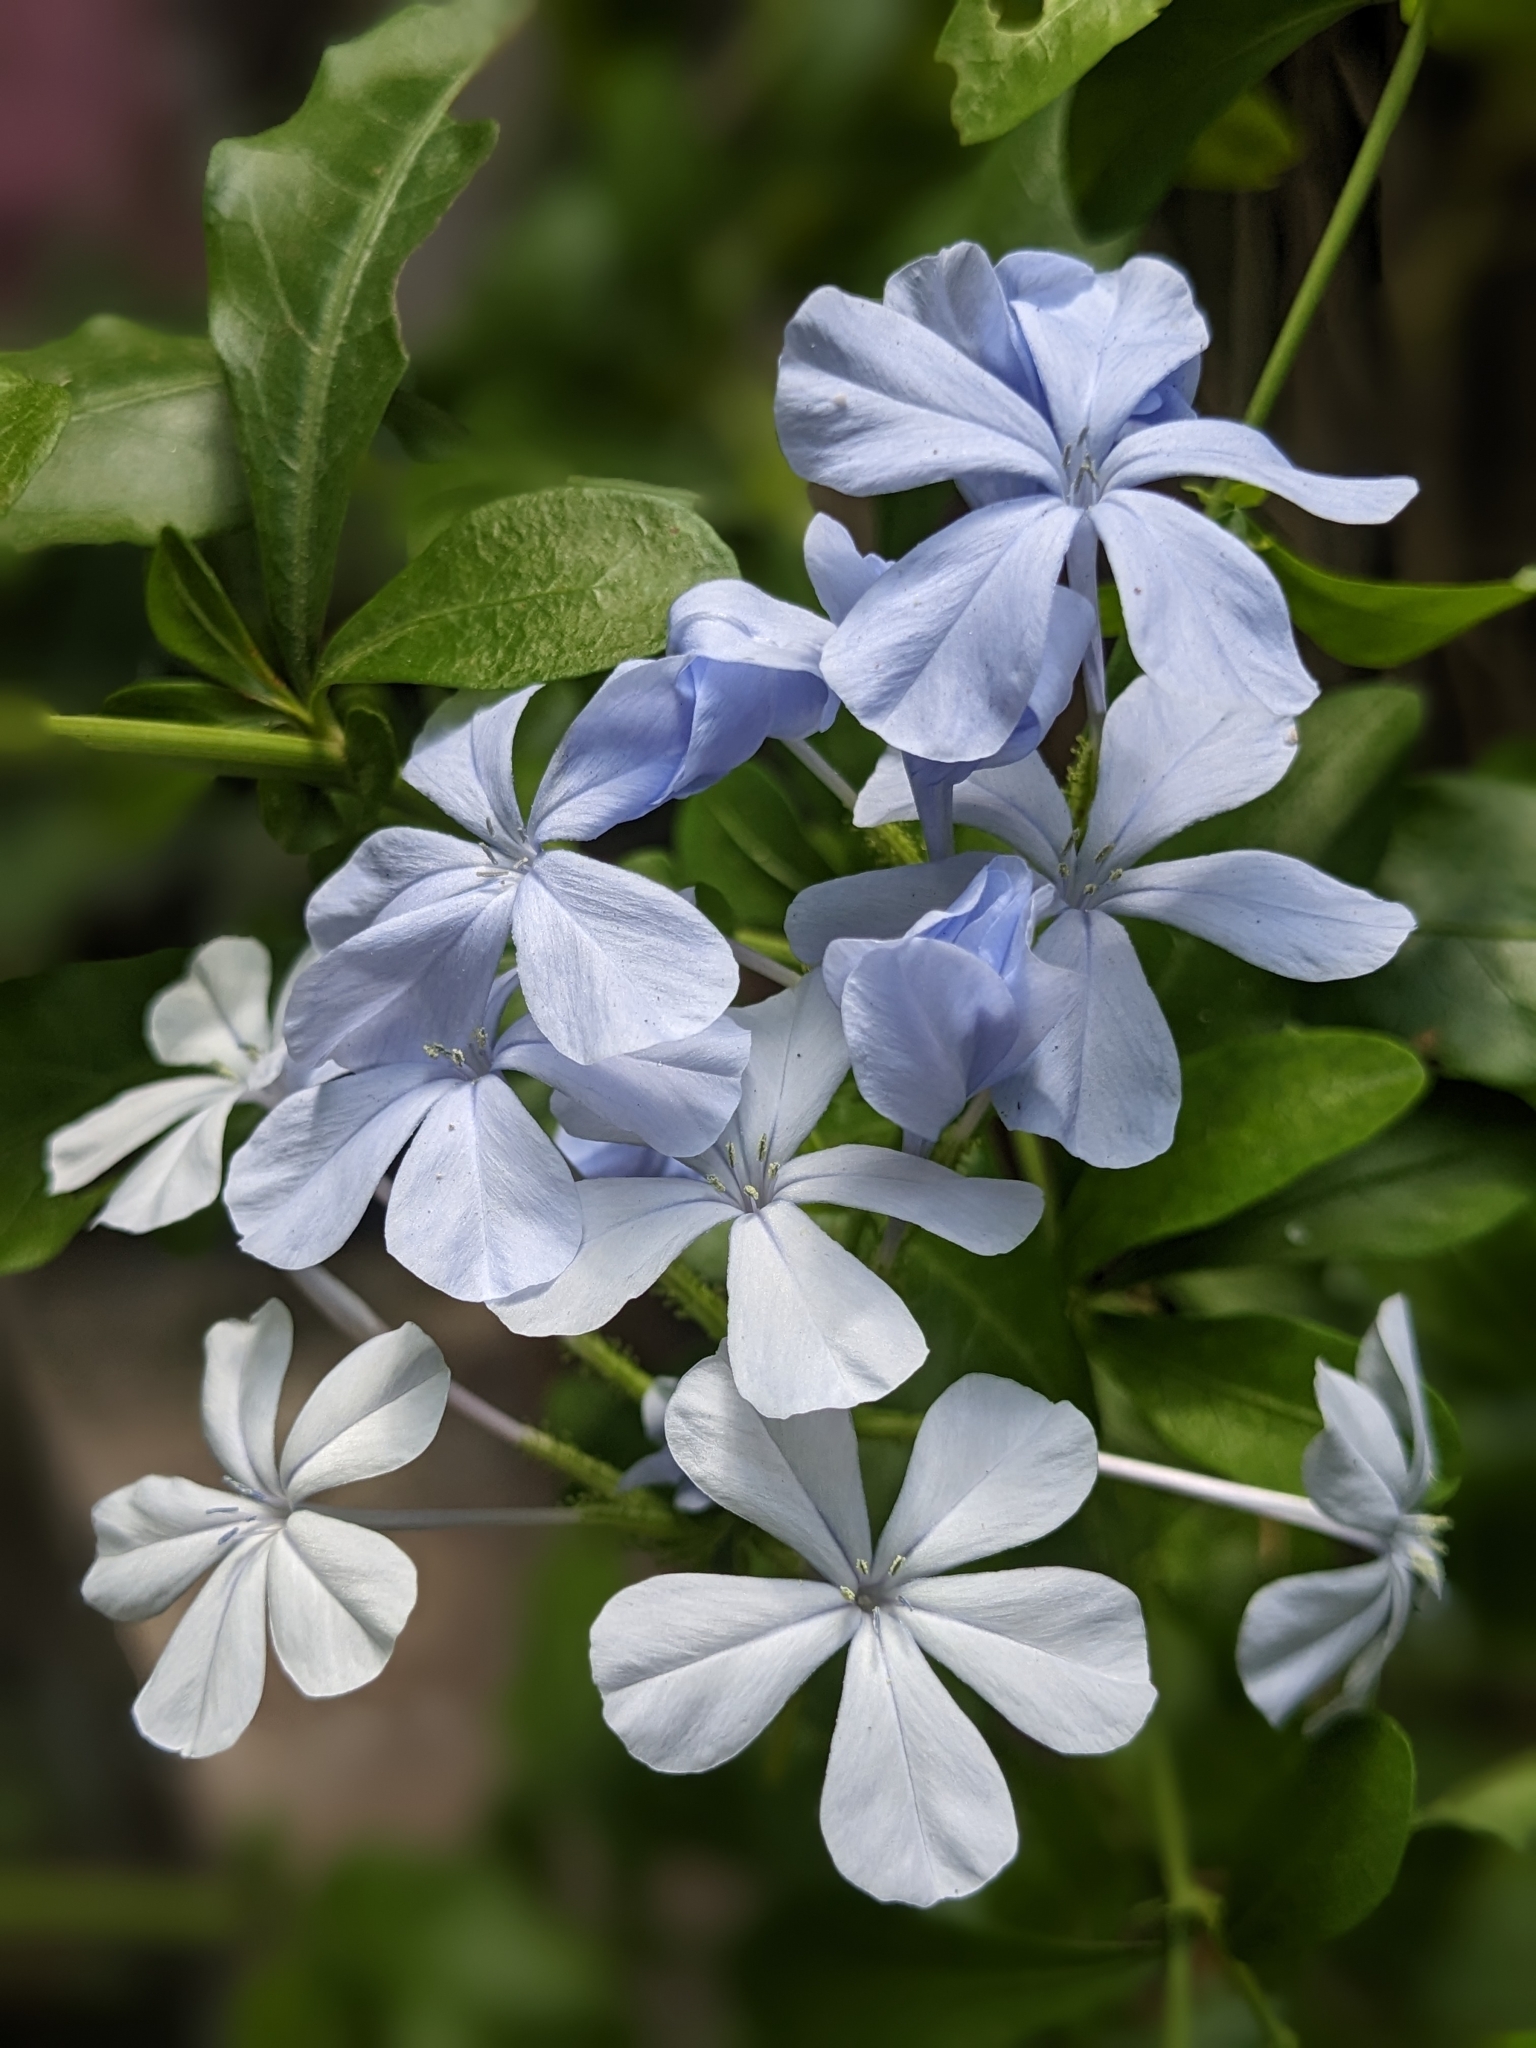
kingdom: Plantae
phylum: Tracheophyta
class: Magnoliopsida
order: Caryophyllales
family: Plumbaginaceae
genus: Plumbago
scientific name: Plumbago auriculata
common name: Cape leadwort
